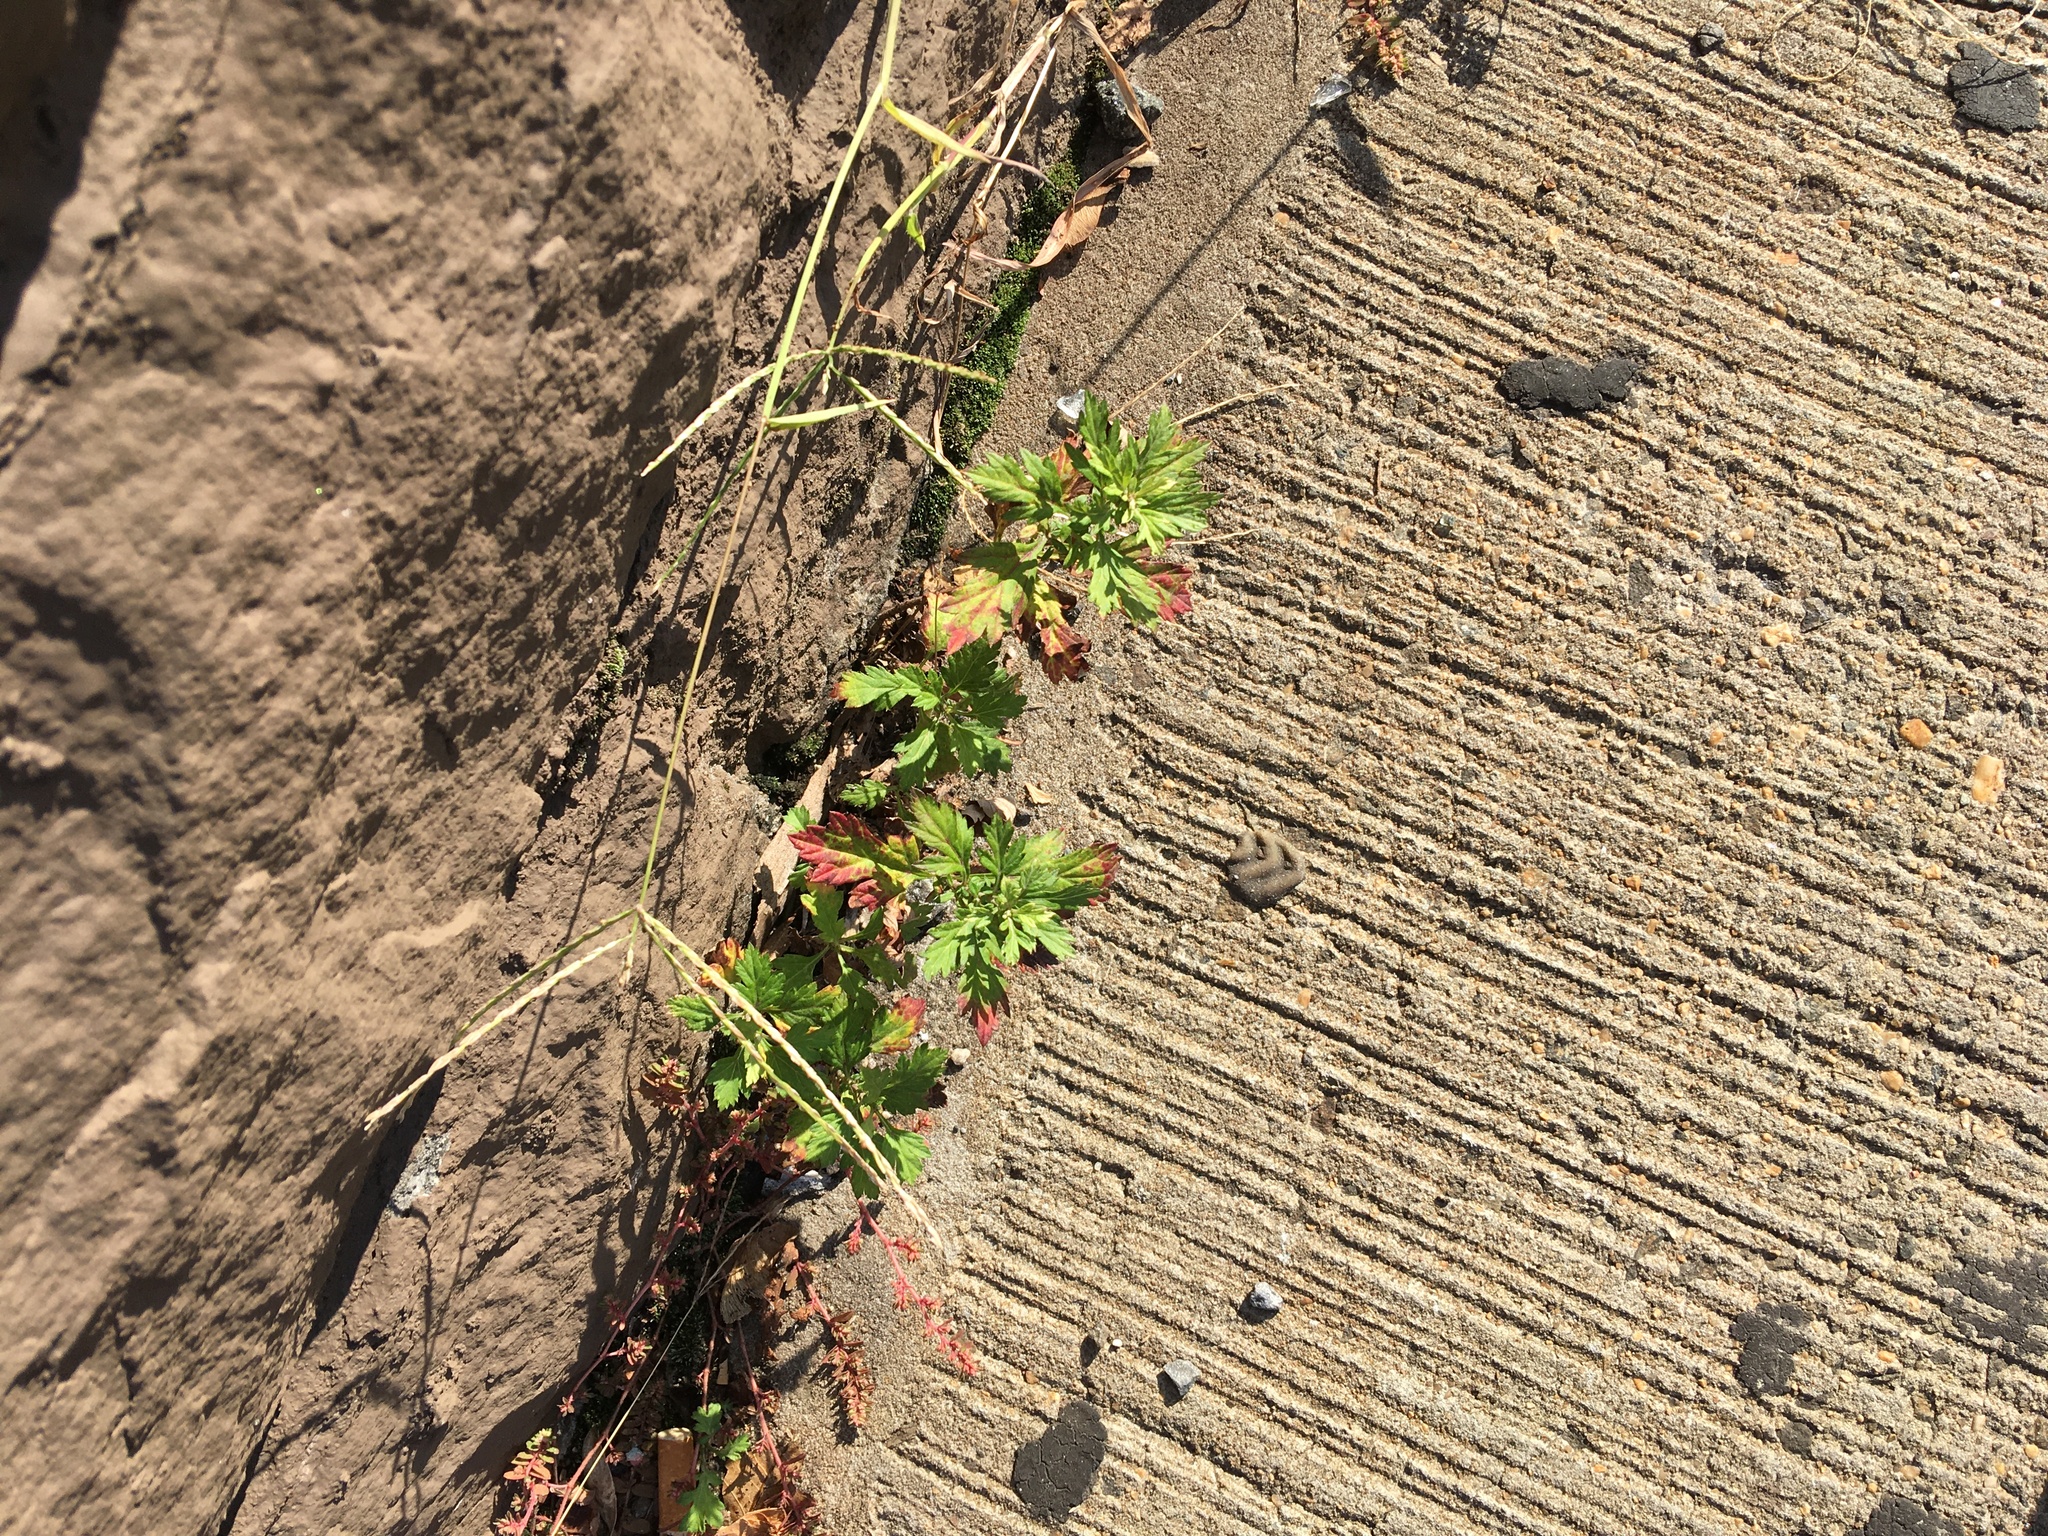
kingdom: Plantae
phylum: Tracheophyta
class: Magnoliopsida
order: Asterales
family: Asteraceae
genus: Artemisia
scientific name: Artemisia vulgaris
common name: Mugwort
